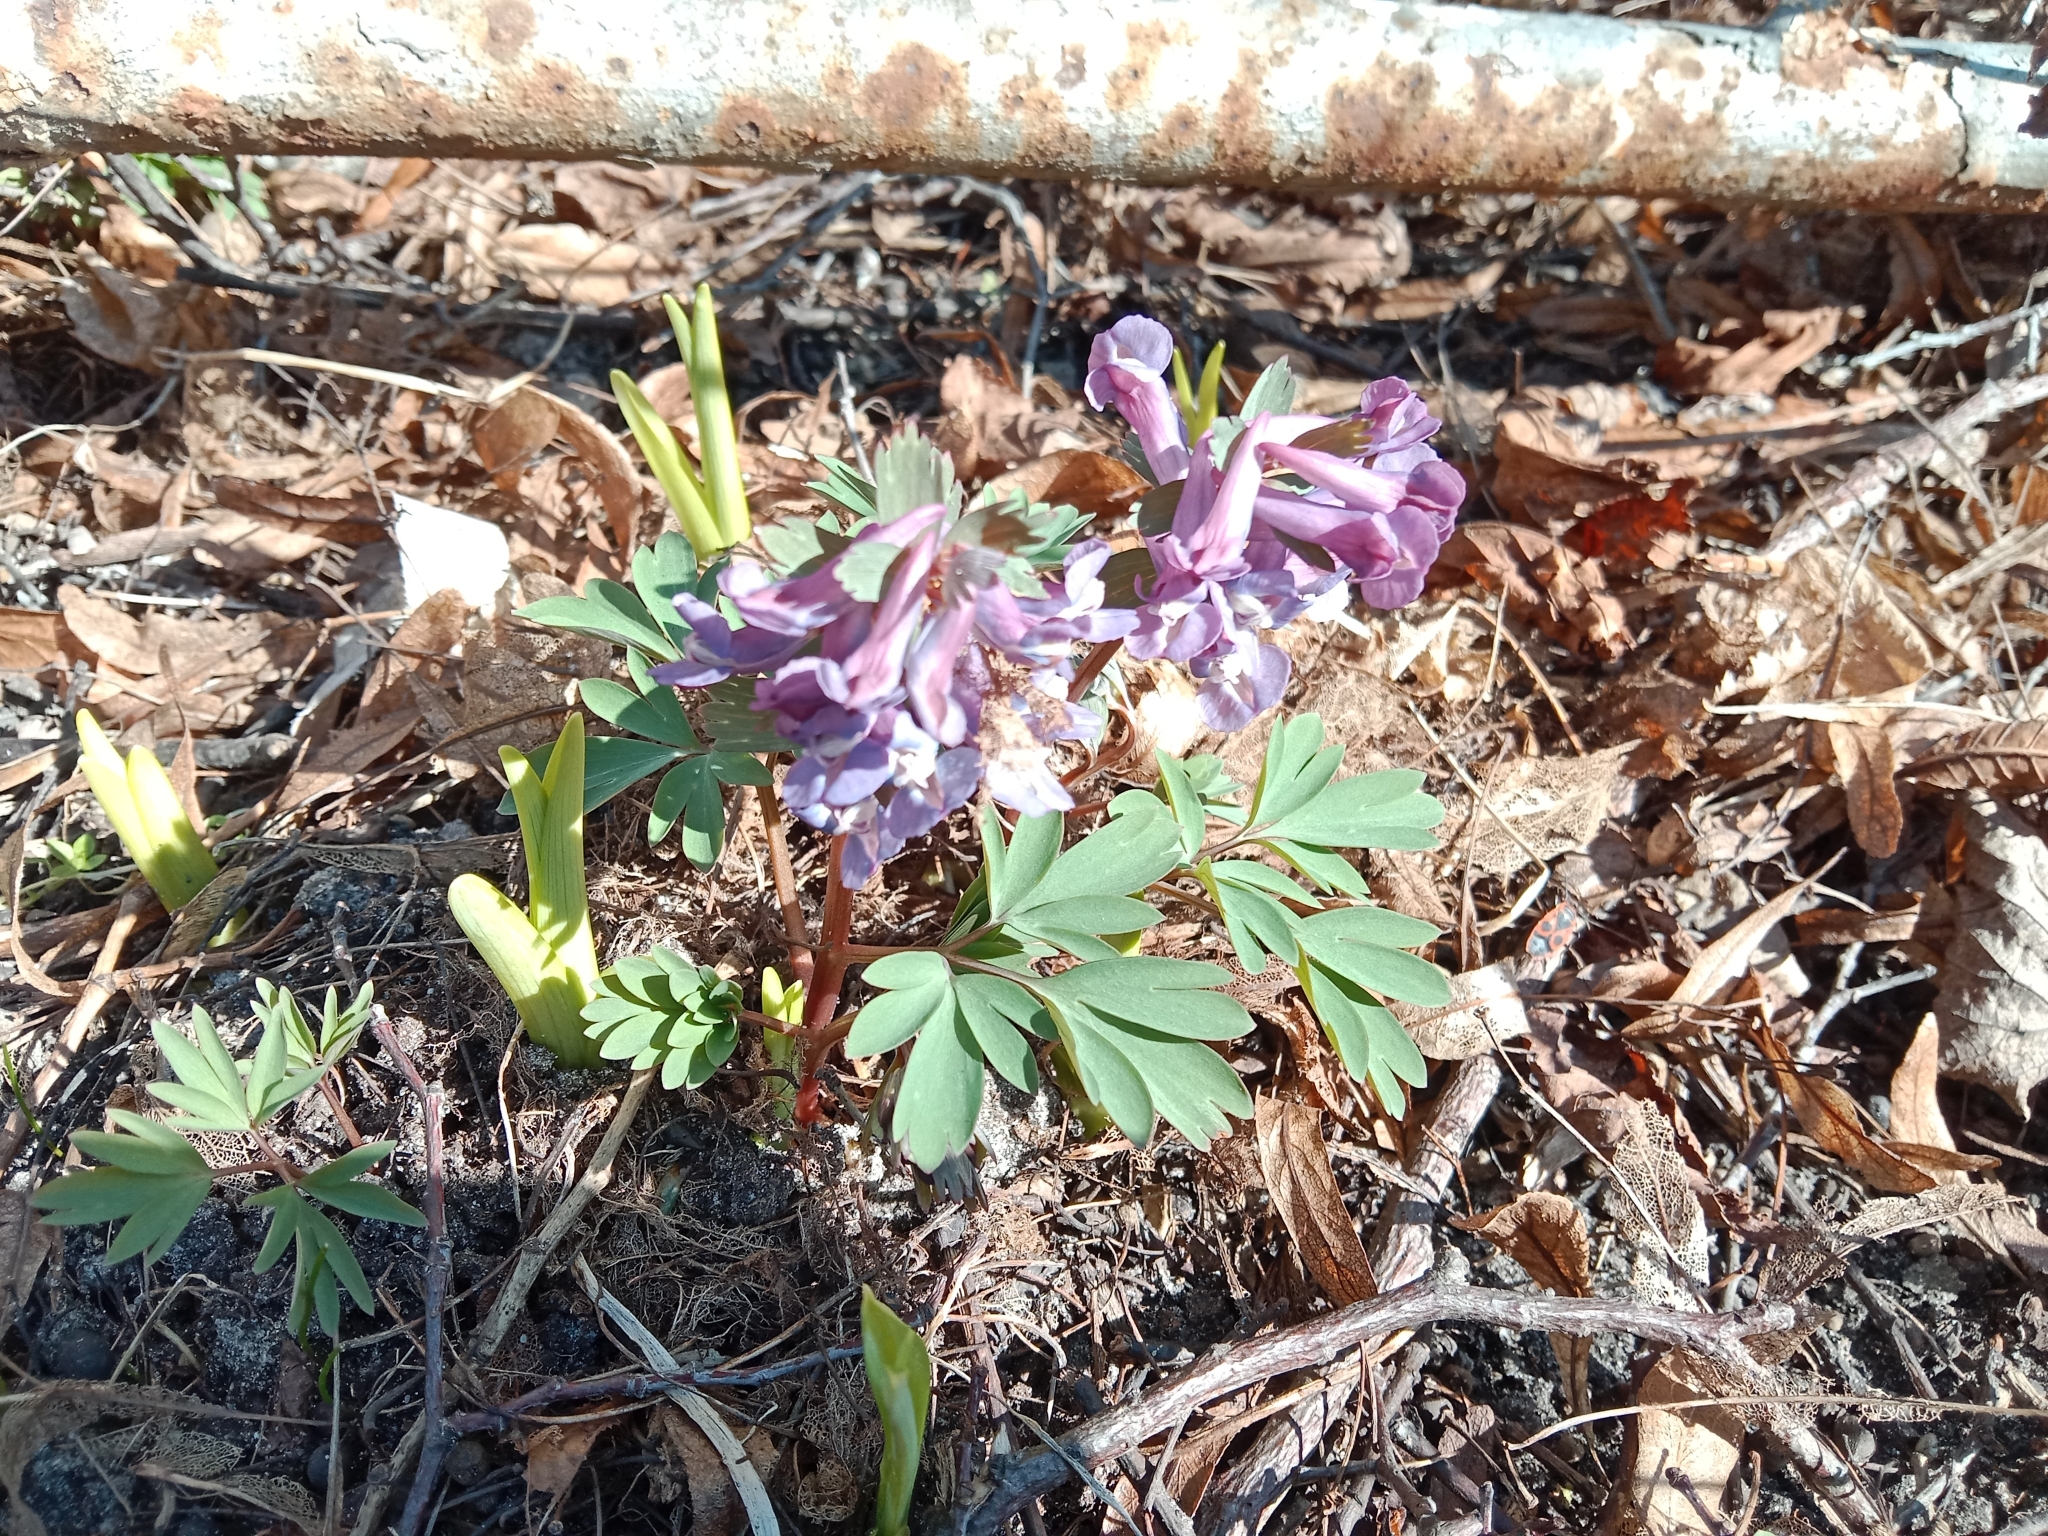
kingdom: Plantae
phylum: Tracheophyta
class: Magnoliopsida
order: Ranunculales
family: Papaveraceae
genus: Corydalis
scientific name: Corydalis solida
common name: Bird-in-a-bush
